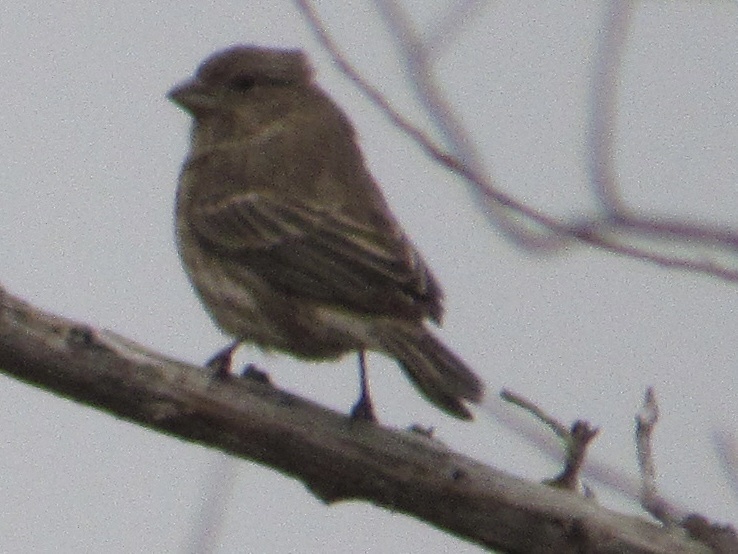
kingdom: Animalia
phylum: Chordata
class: Aves
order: Passeriformes
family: Fringillidae
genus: Haemorhous
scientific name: Haemorhous mexicanus
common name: House finch
